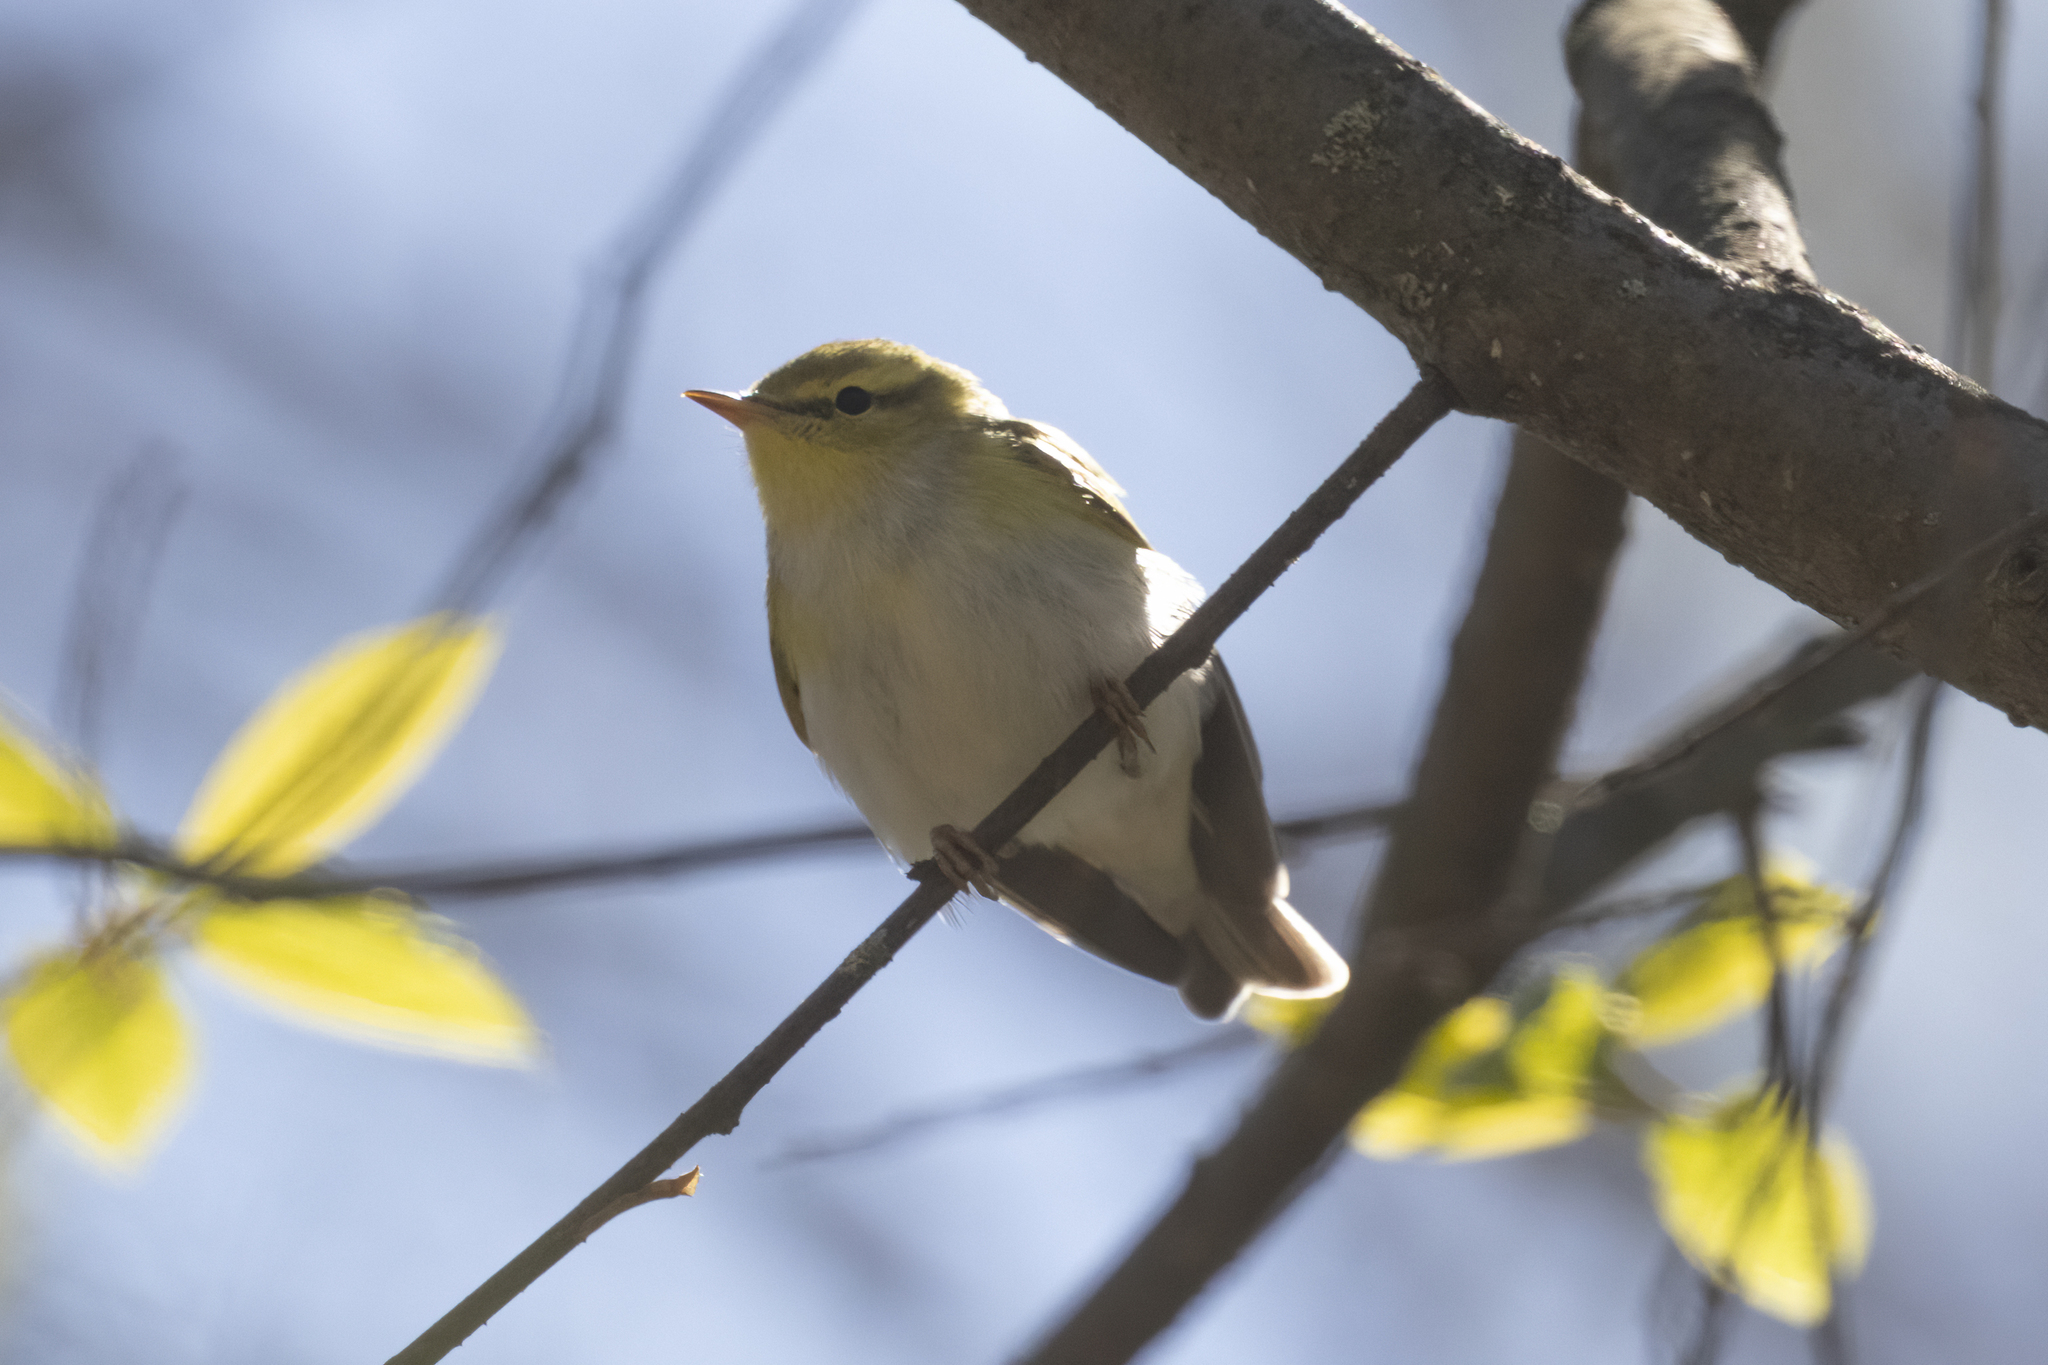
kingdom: Animalia
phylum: Chordata
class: Aves
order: Passeriformes
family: Phylloscopidae
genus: Phylloscopus
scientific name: Phylloscopus sibillatrix
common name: Wood warbler
